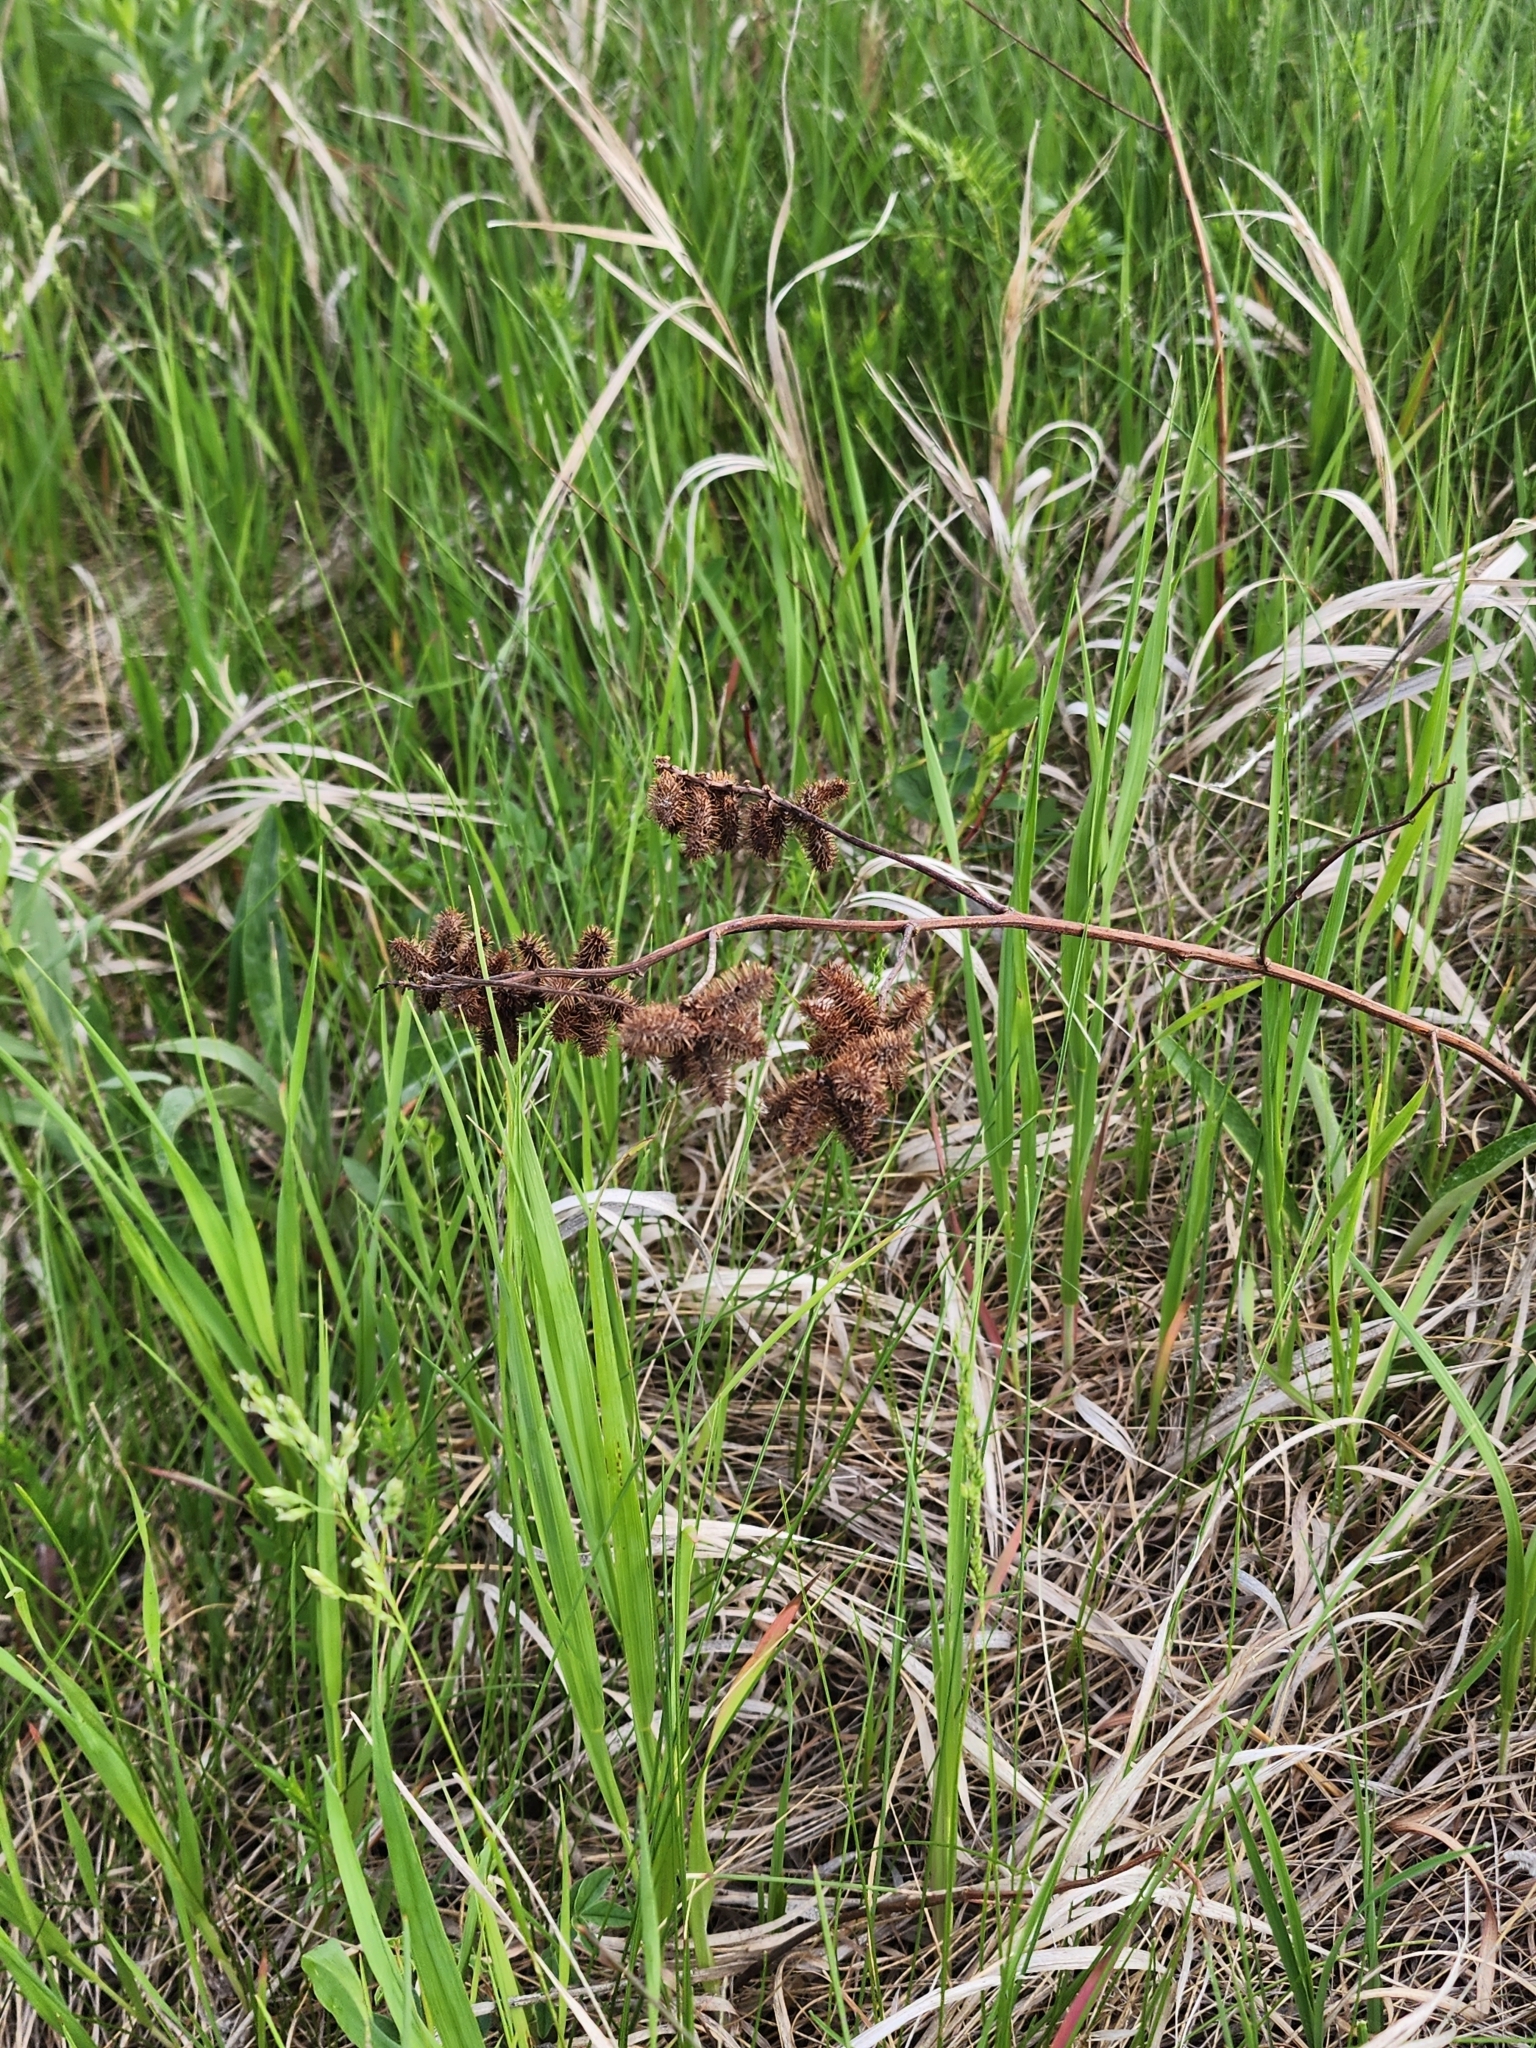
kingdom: Plantae
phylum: Tracheophyta
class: Magnoliopsida
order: Fabales
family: Fabaceae
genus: Glycyrrhiza
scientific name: Glycyrrhiza lepidota
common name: American liquorice
